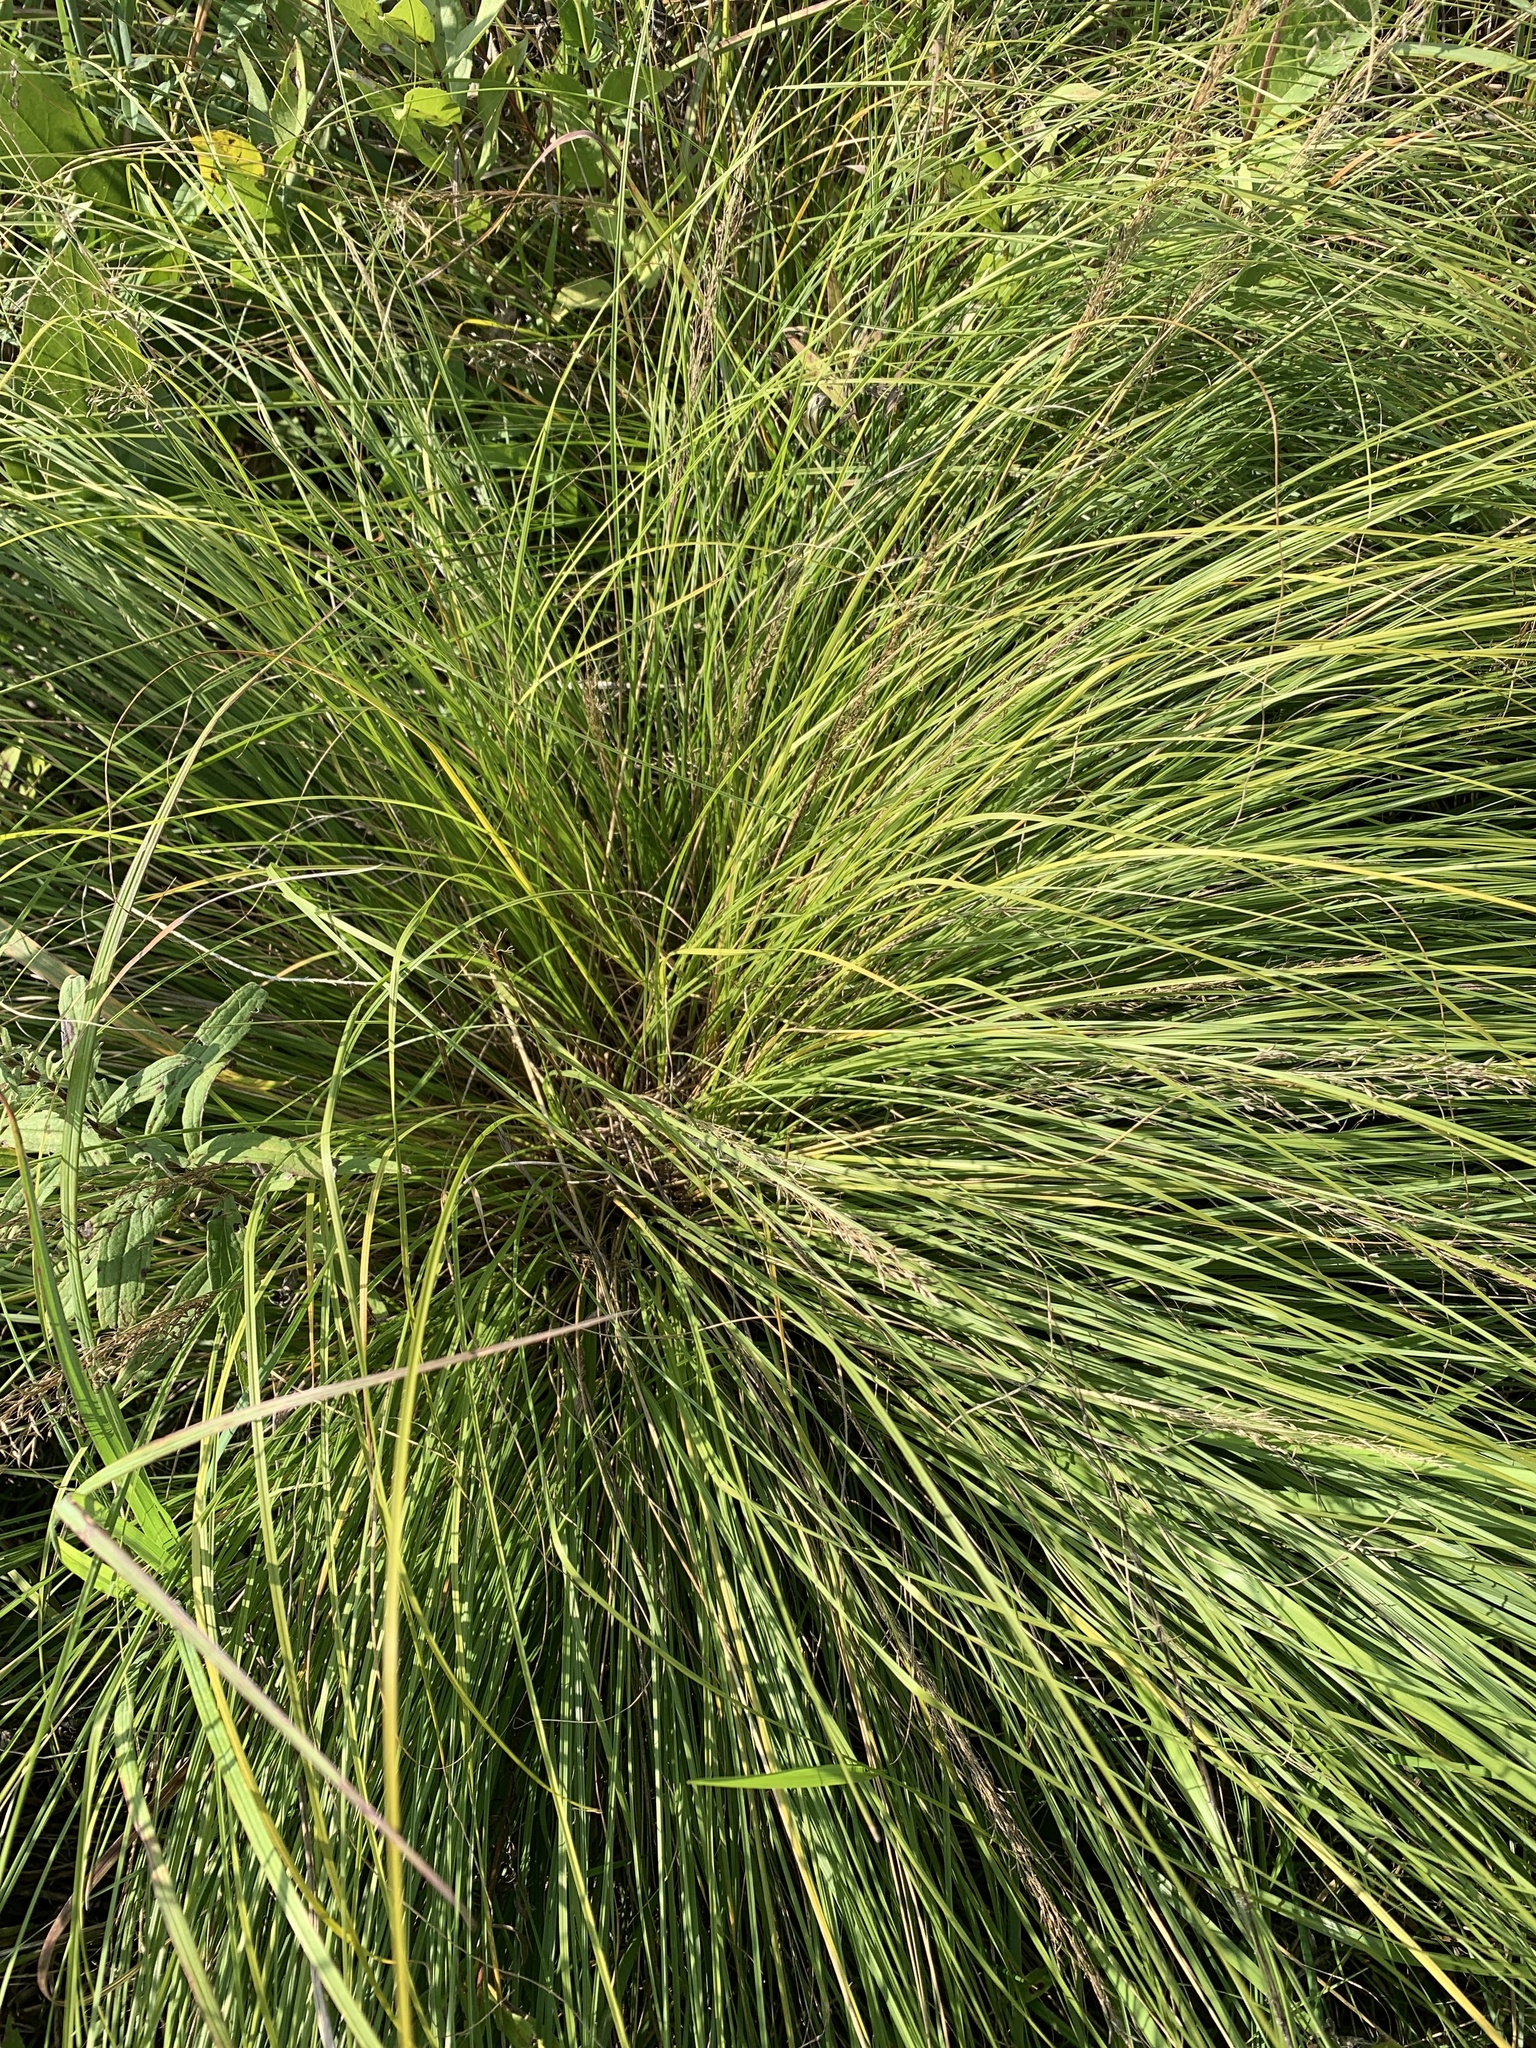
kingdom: Plantae
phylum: Tracheophyta
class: Liliopsida
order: Poales
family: Poaceae
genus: Sporobolus
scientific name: Sporobolus heterolepis
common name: Prairie dropseed
